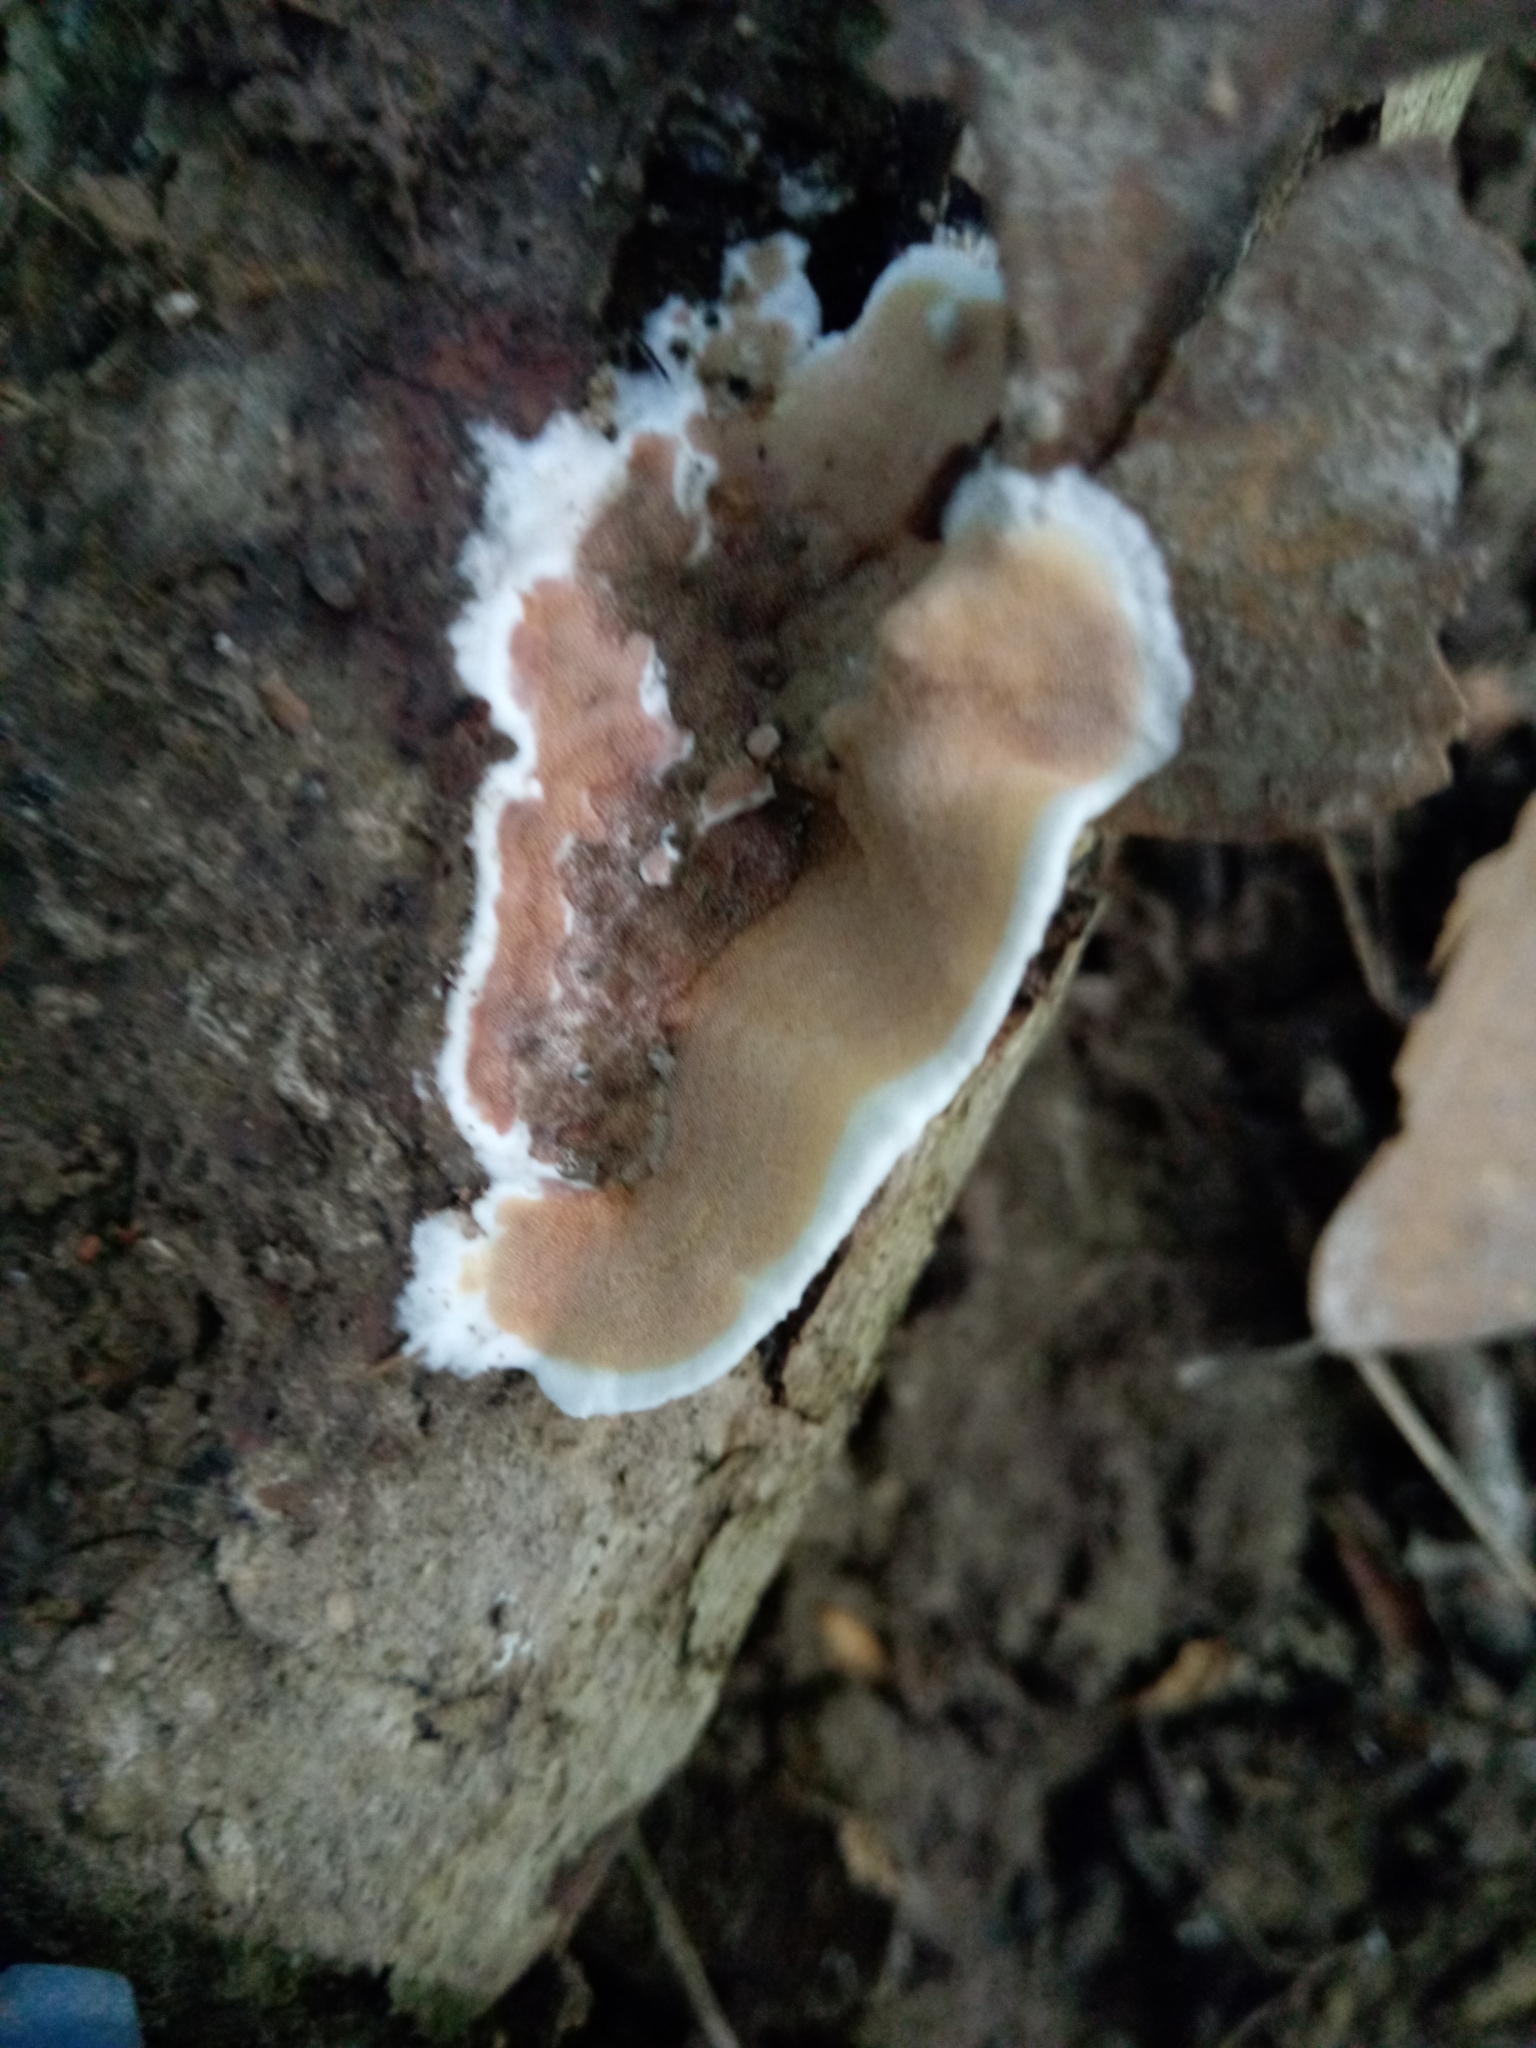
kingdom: Fungi
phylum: Basidiomycota
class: Agaricomycetes
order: Polyporales
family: Irpicaceae
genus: Vitreoporus
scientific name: Vitreoporus dichrous
